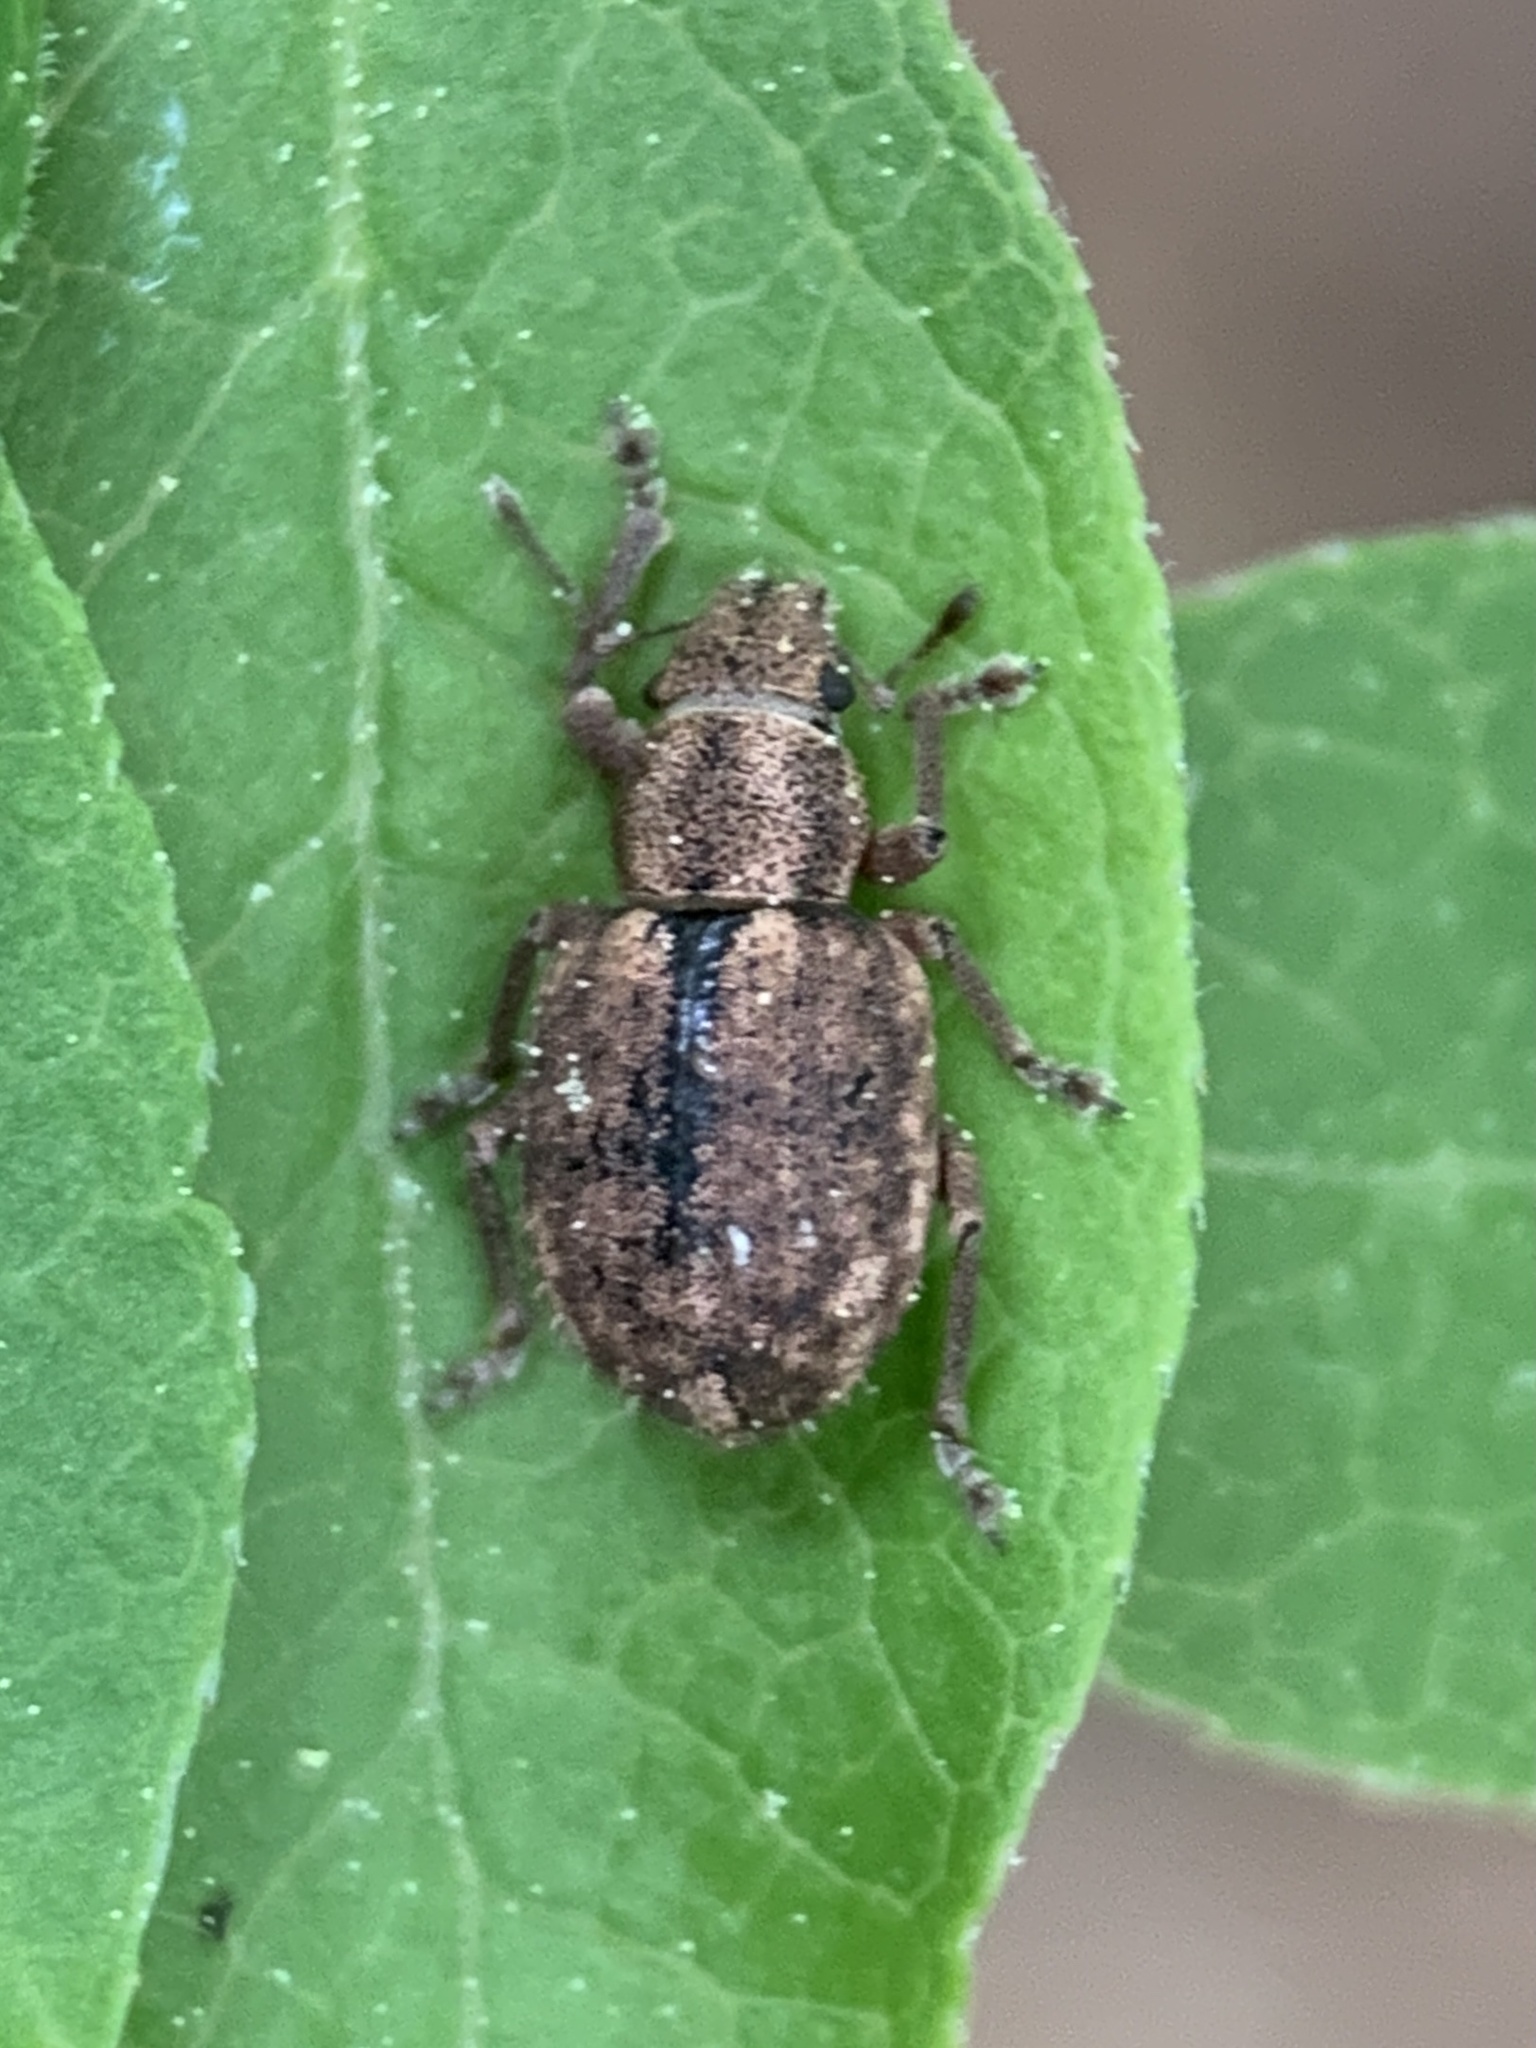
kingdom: Animalia
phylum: Arthropoda
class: Insecta
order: Coleoptera
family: Curculionidae
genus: Strophosoma
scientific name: Strophosoma melanogrammum
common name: Weevil
